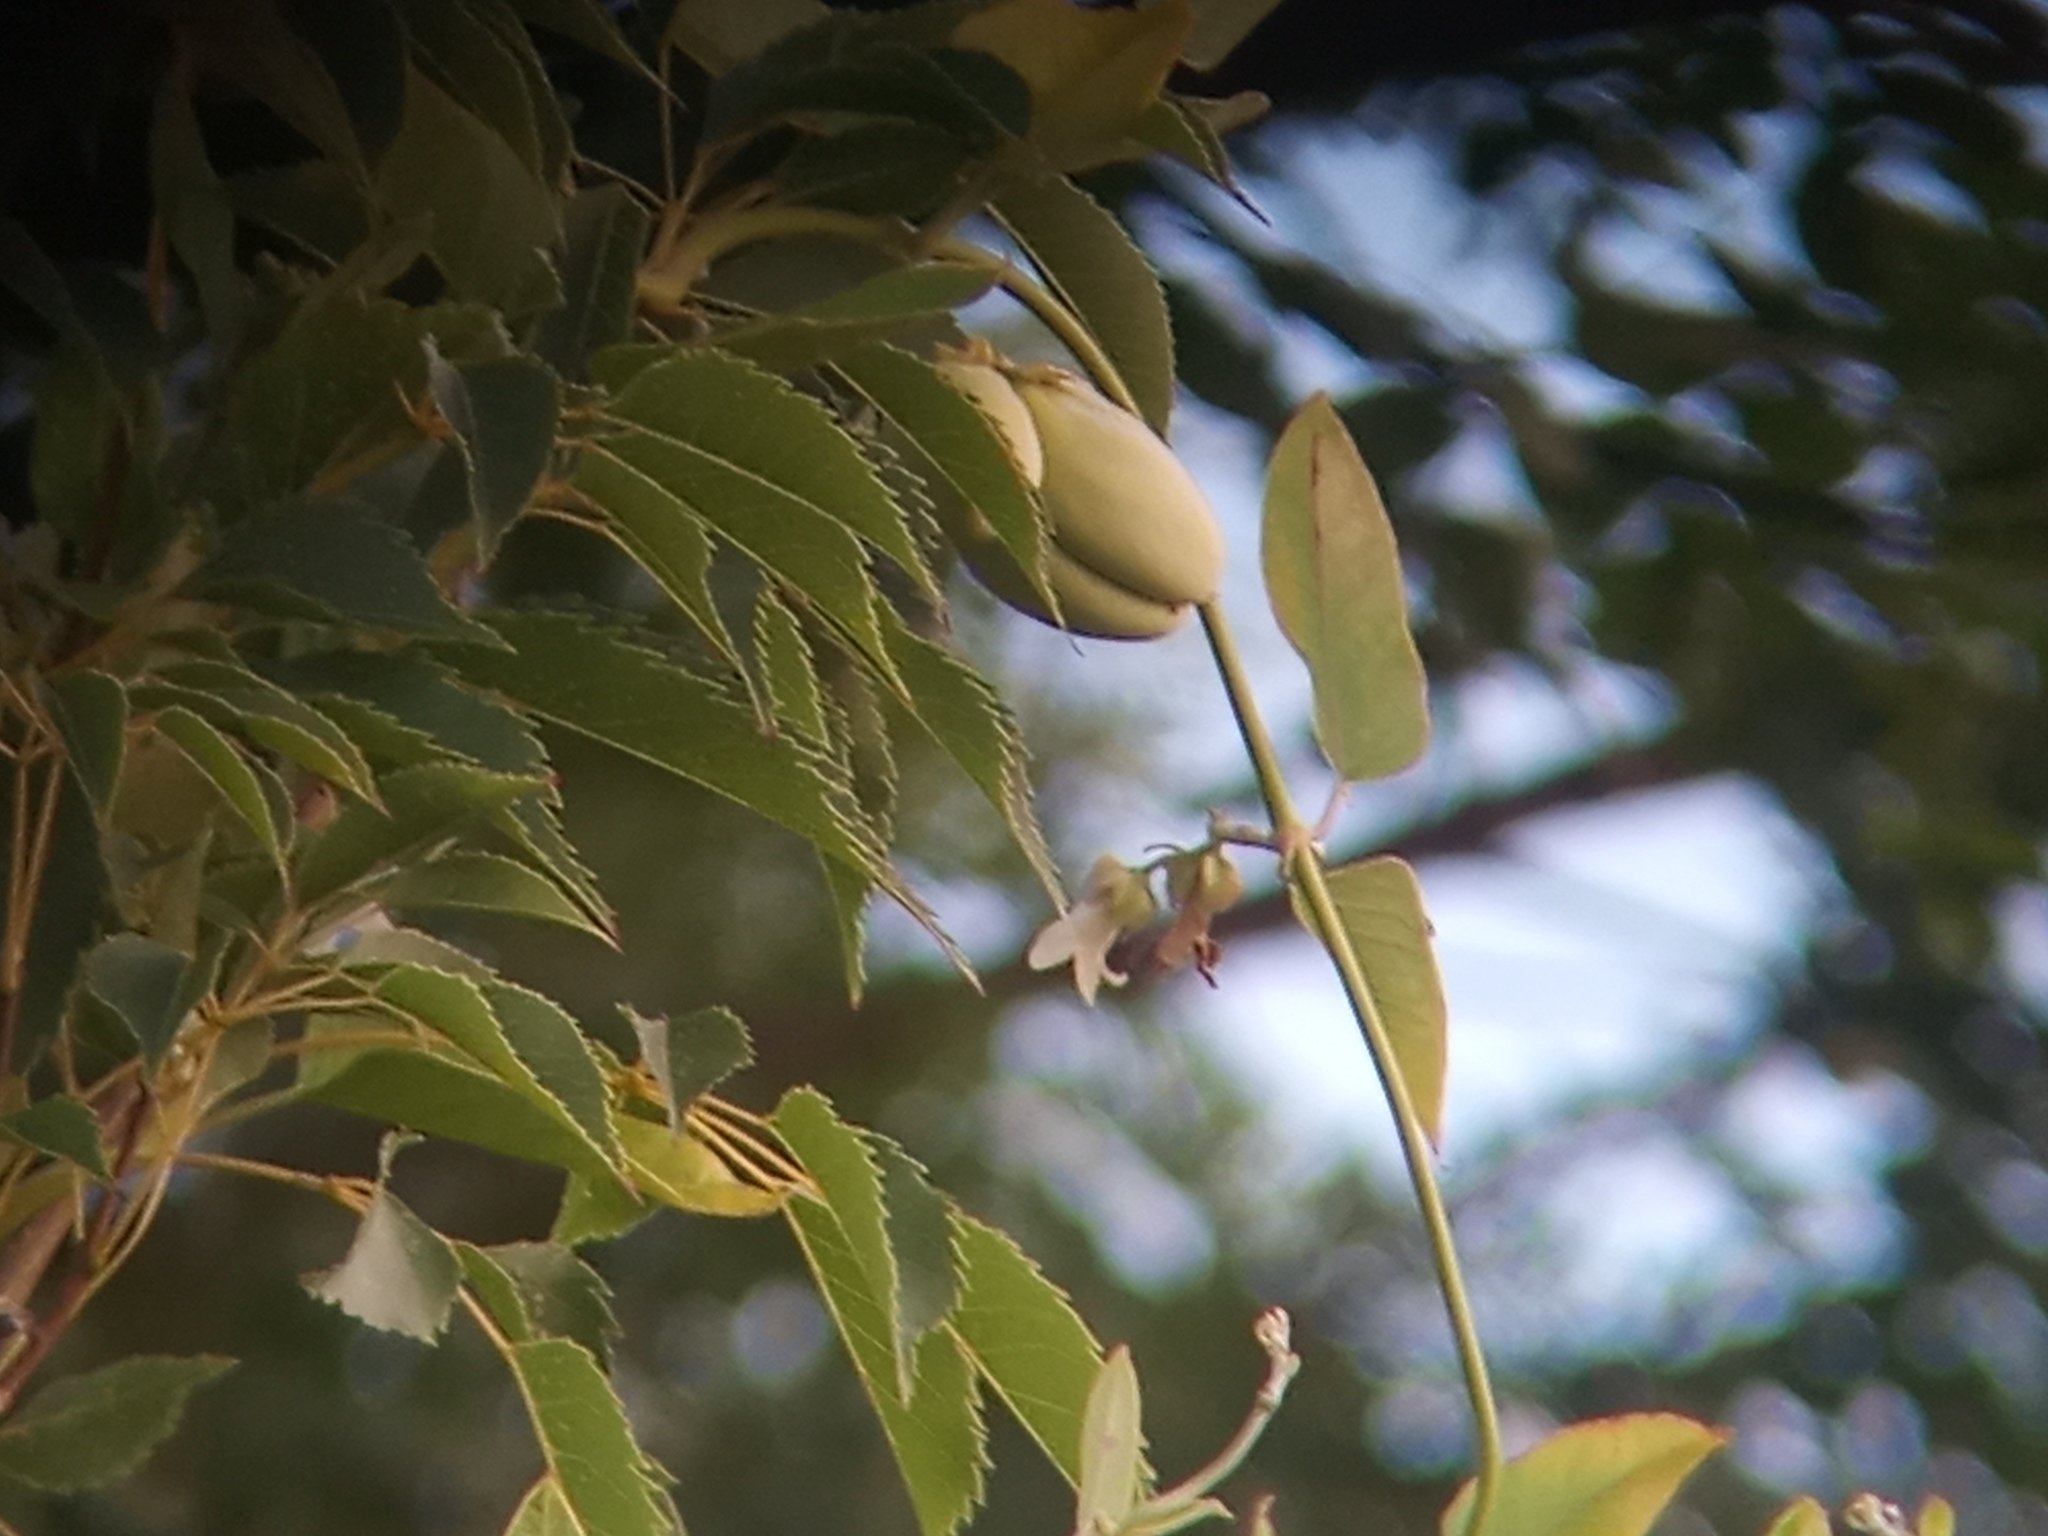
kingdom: Plantae
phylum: Tracheophyta
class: Magnoliopsida
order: Gentianales
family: Apocynaceae
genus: Araujia
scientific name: Araujia sericifera
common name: White bladderflower
